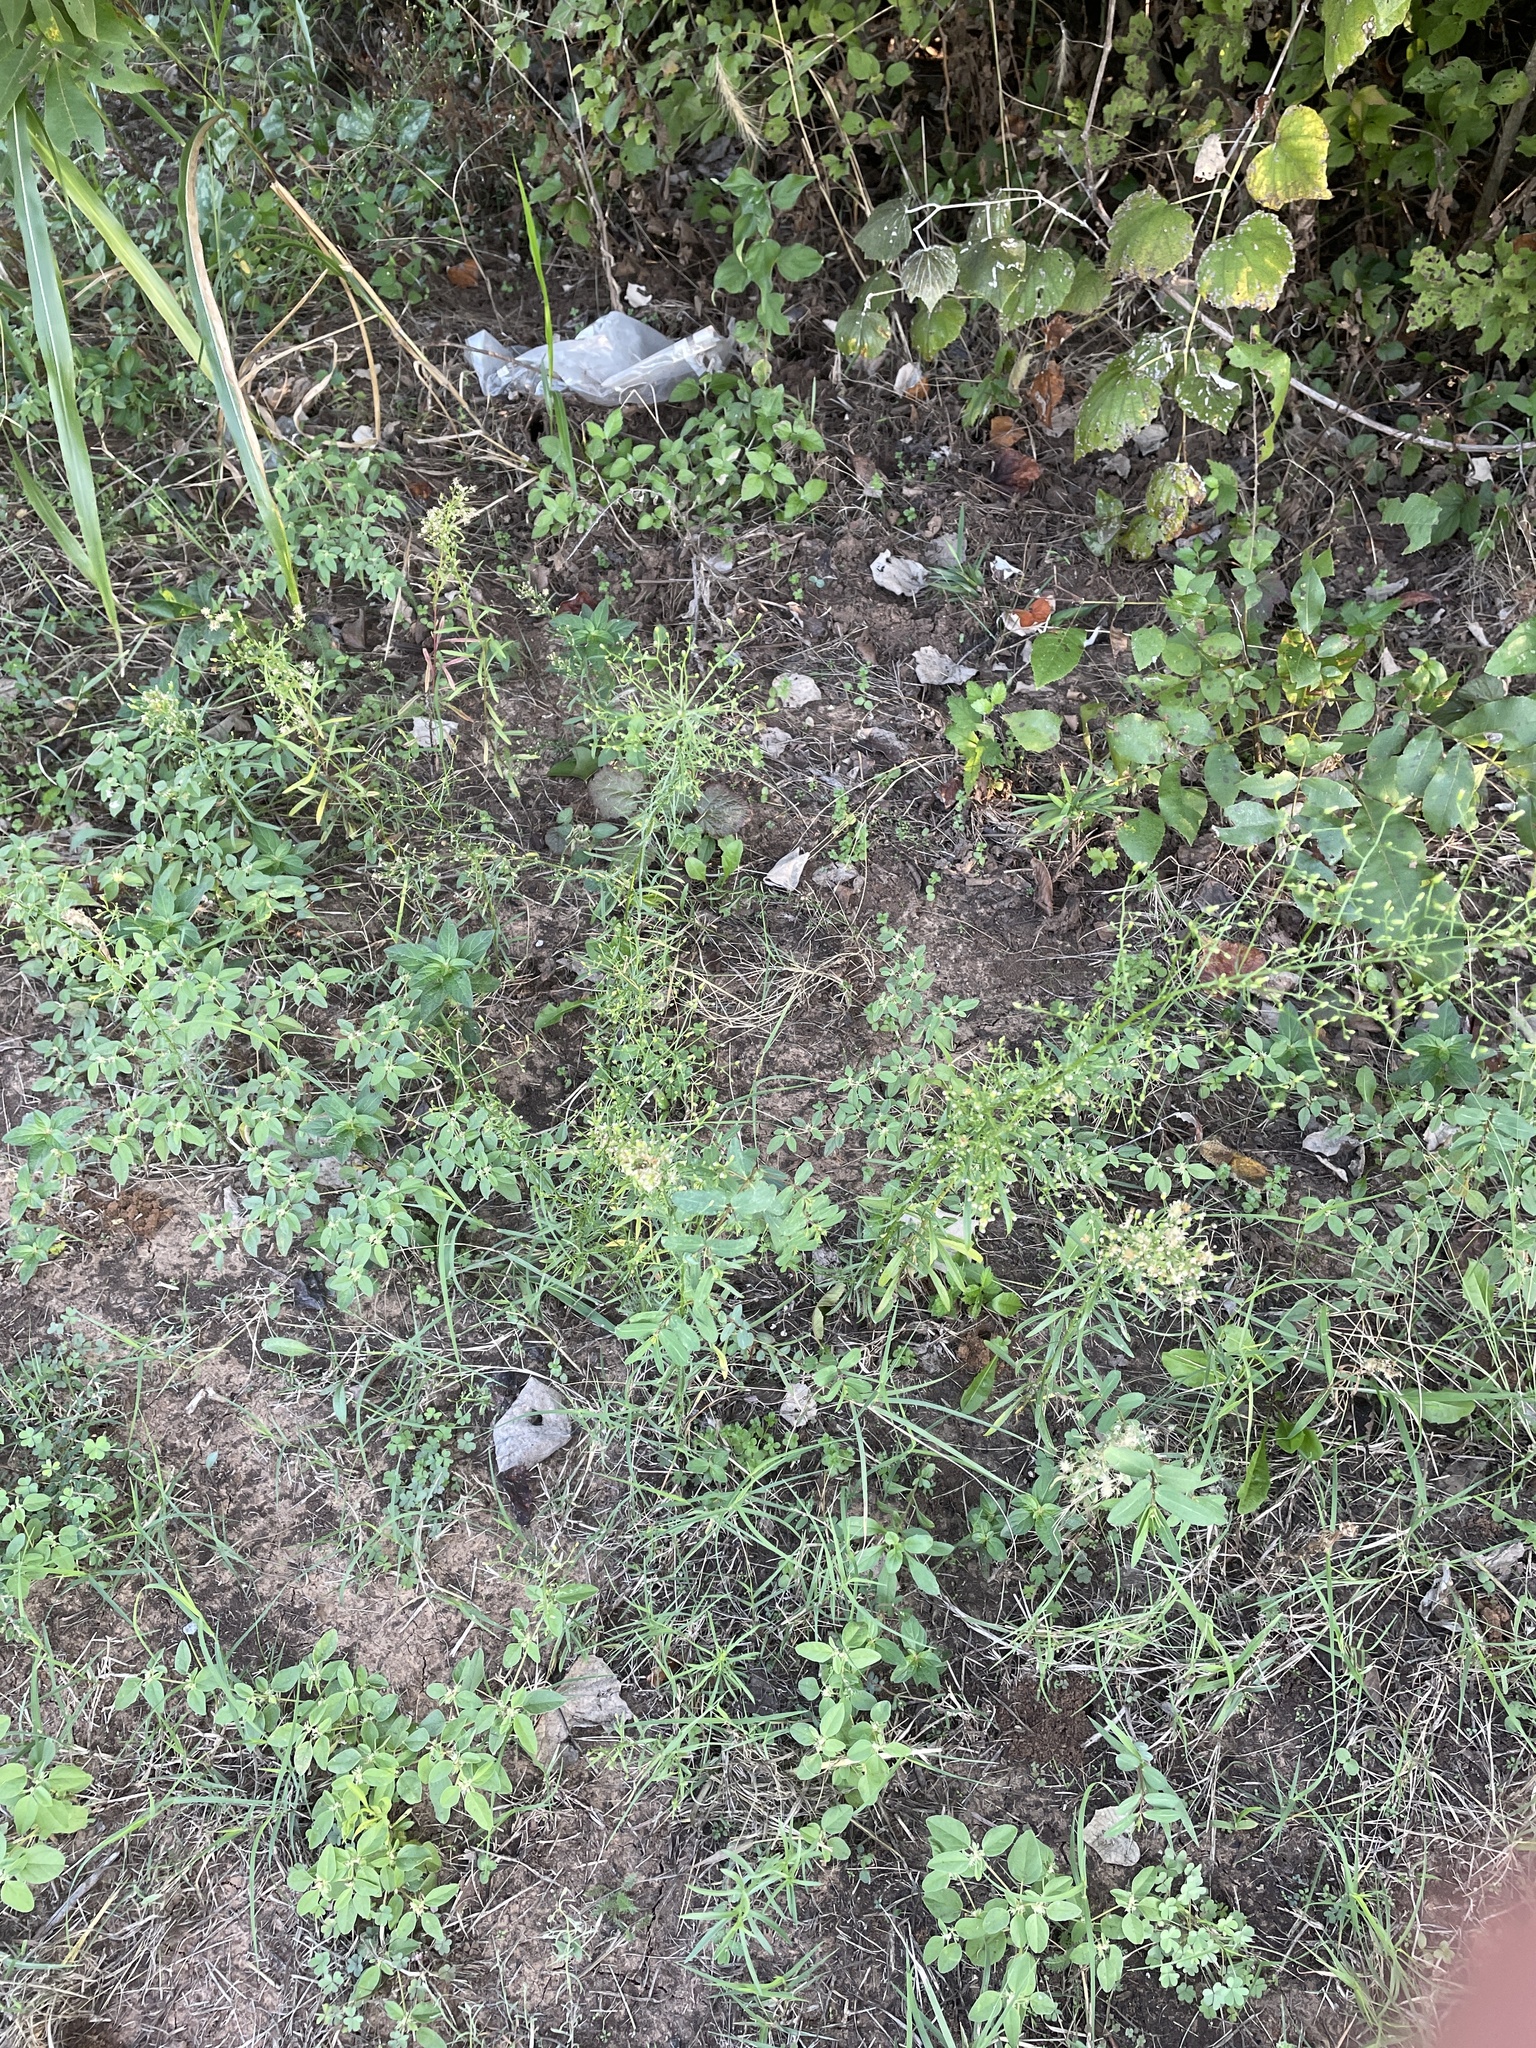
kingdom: Plantae
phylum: Tracheophyta
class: Magnoliopsida
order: Asterales
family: Asteraceae
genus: Erigeron
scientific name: Erigeron canadensis
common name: Canadian fleabane
